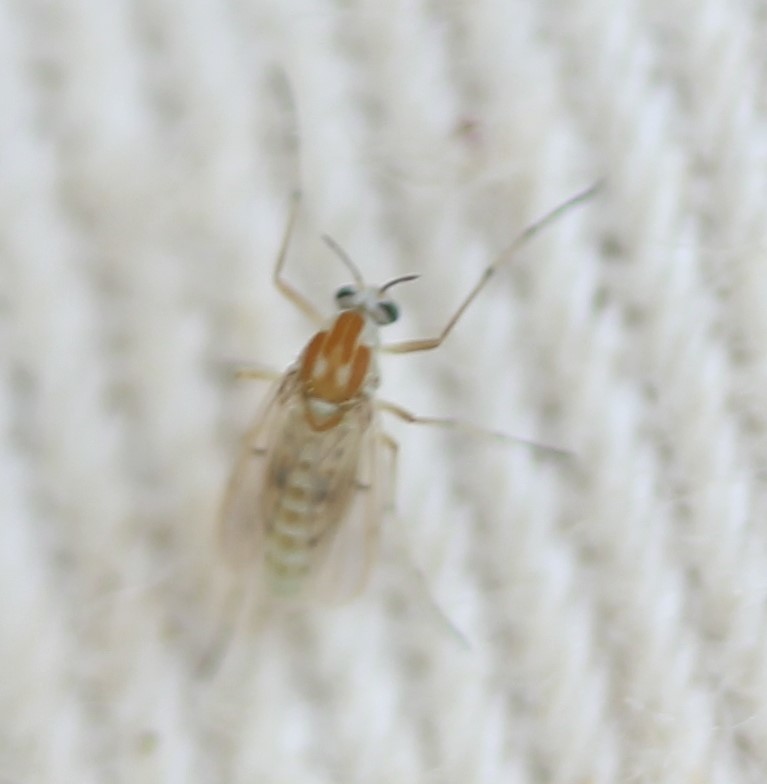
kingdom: Animalia
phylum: Arthropoda
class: Insecta
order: Diptera
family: Chironomidae
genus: Procladius
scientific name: Procladius bellus
